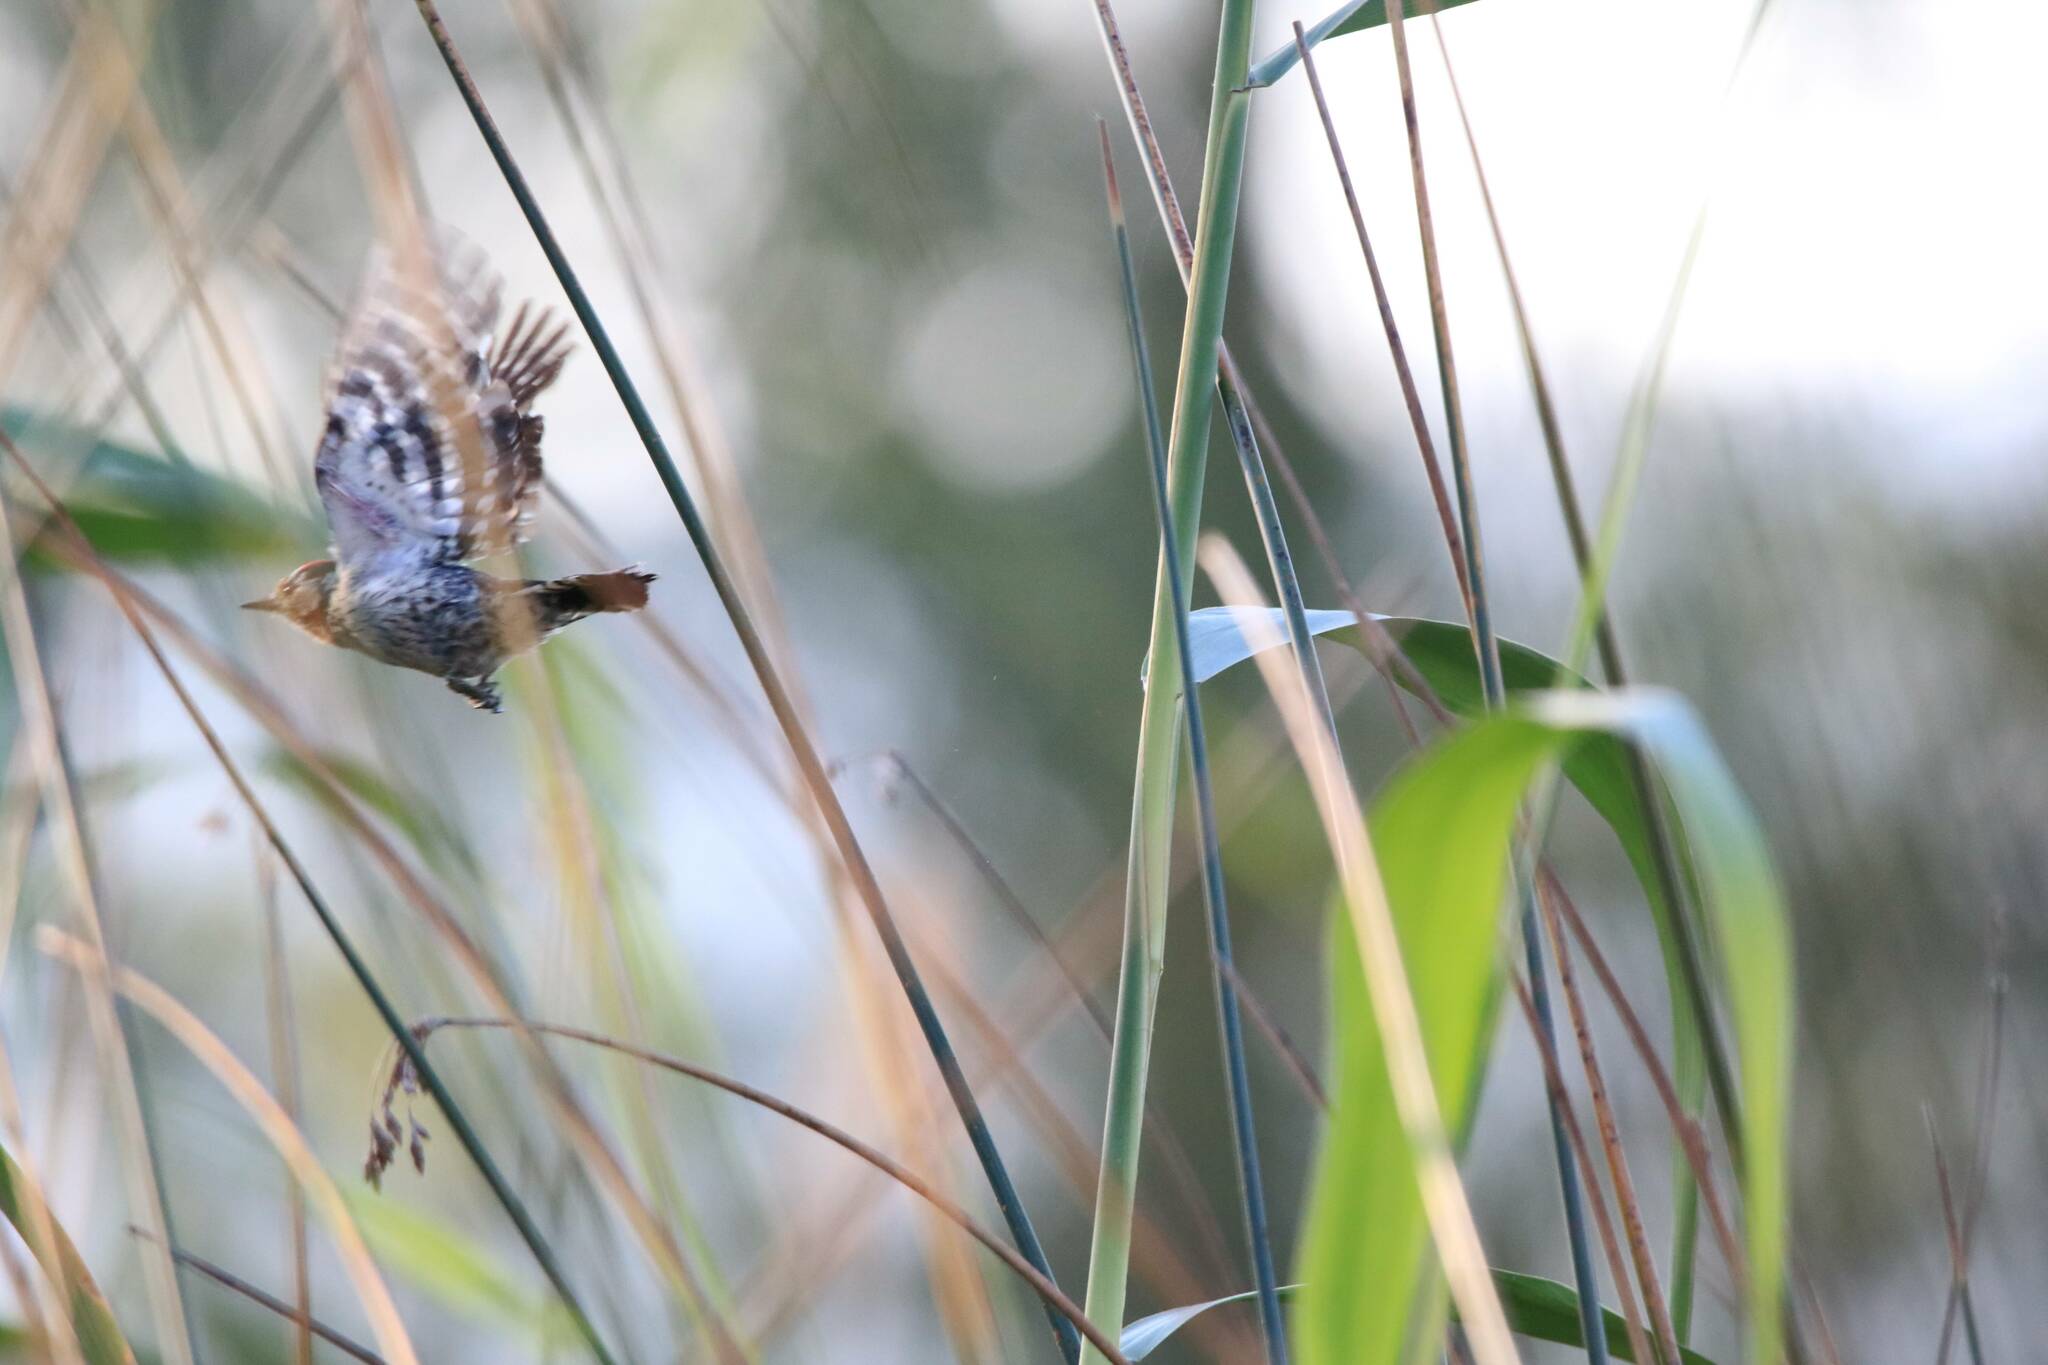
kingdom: Animalia
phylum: Chordata
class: Aves
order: Piciformes
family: Picidae
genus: Dryobates
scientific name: Dryobates minor
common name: Lesser spotted woodpecker
